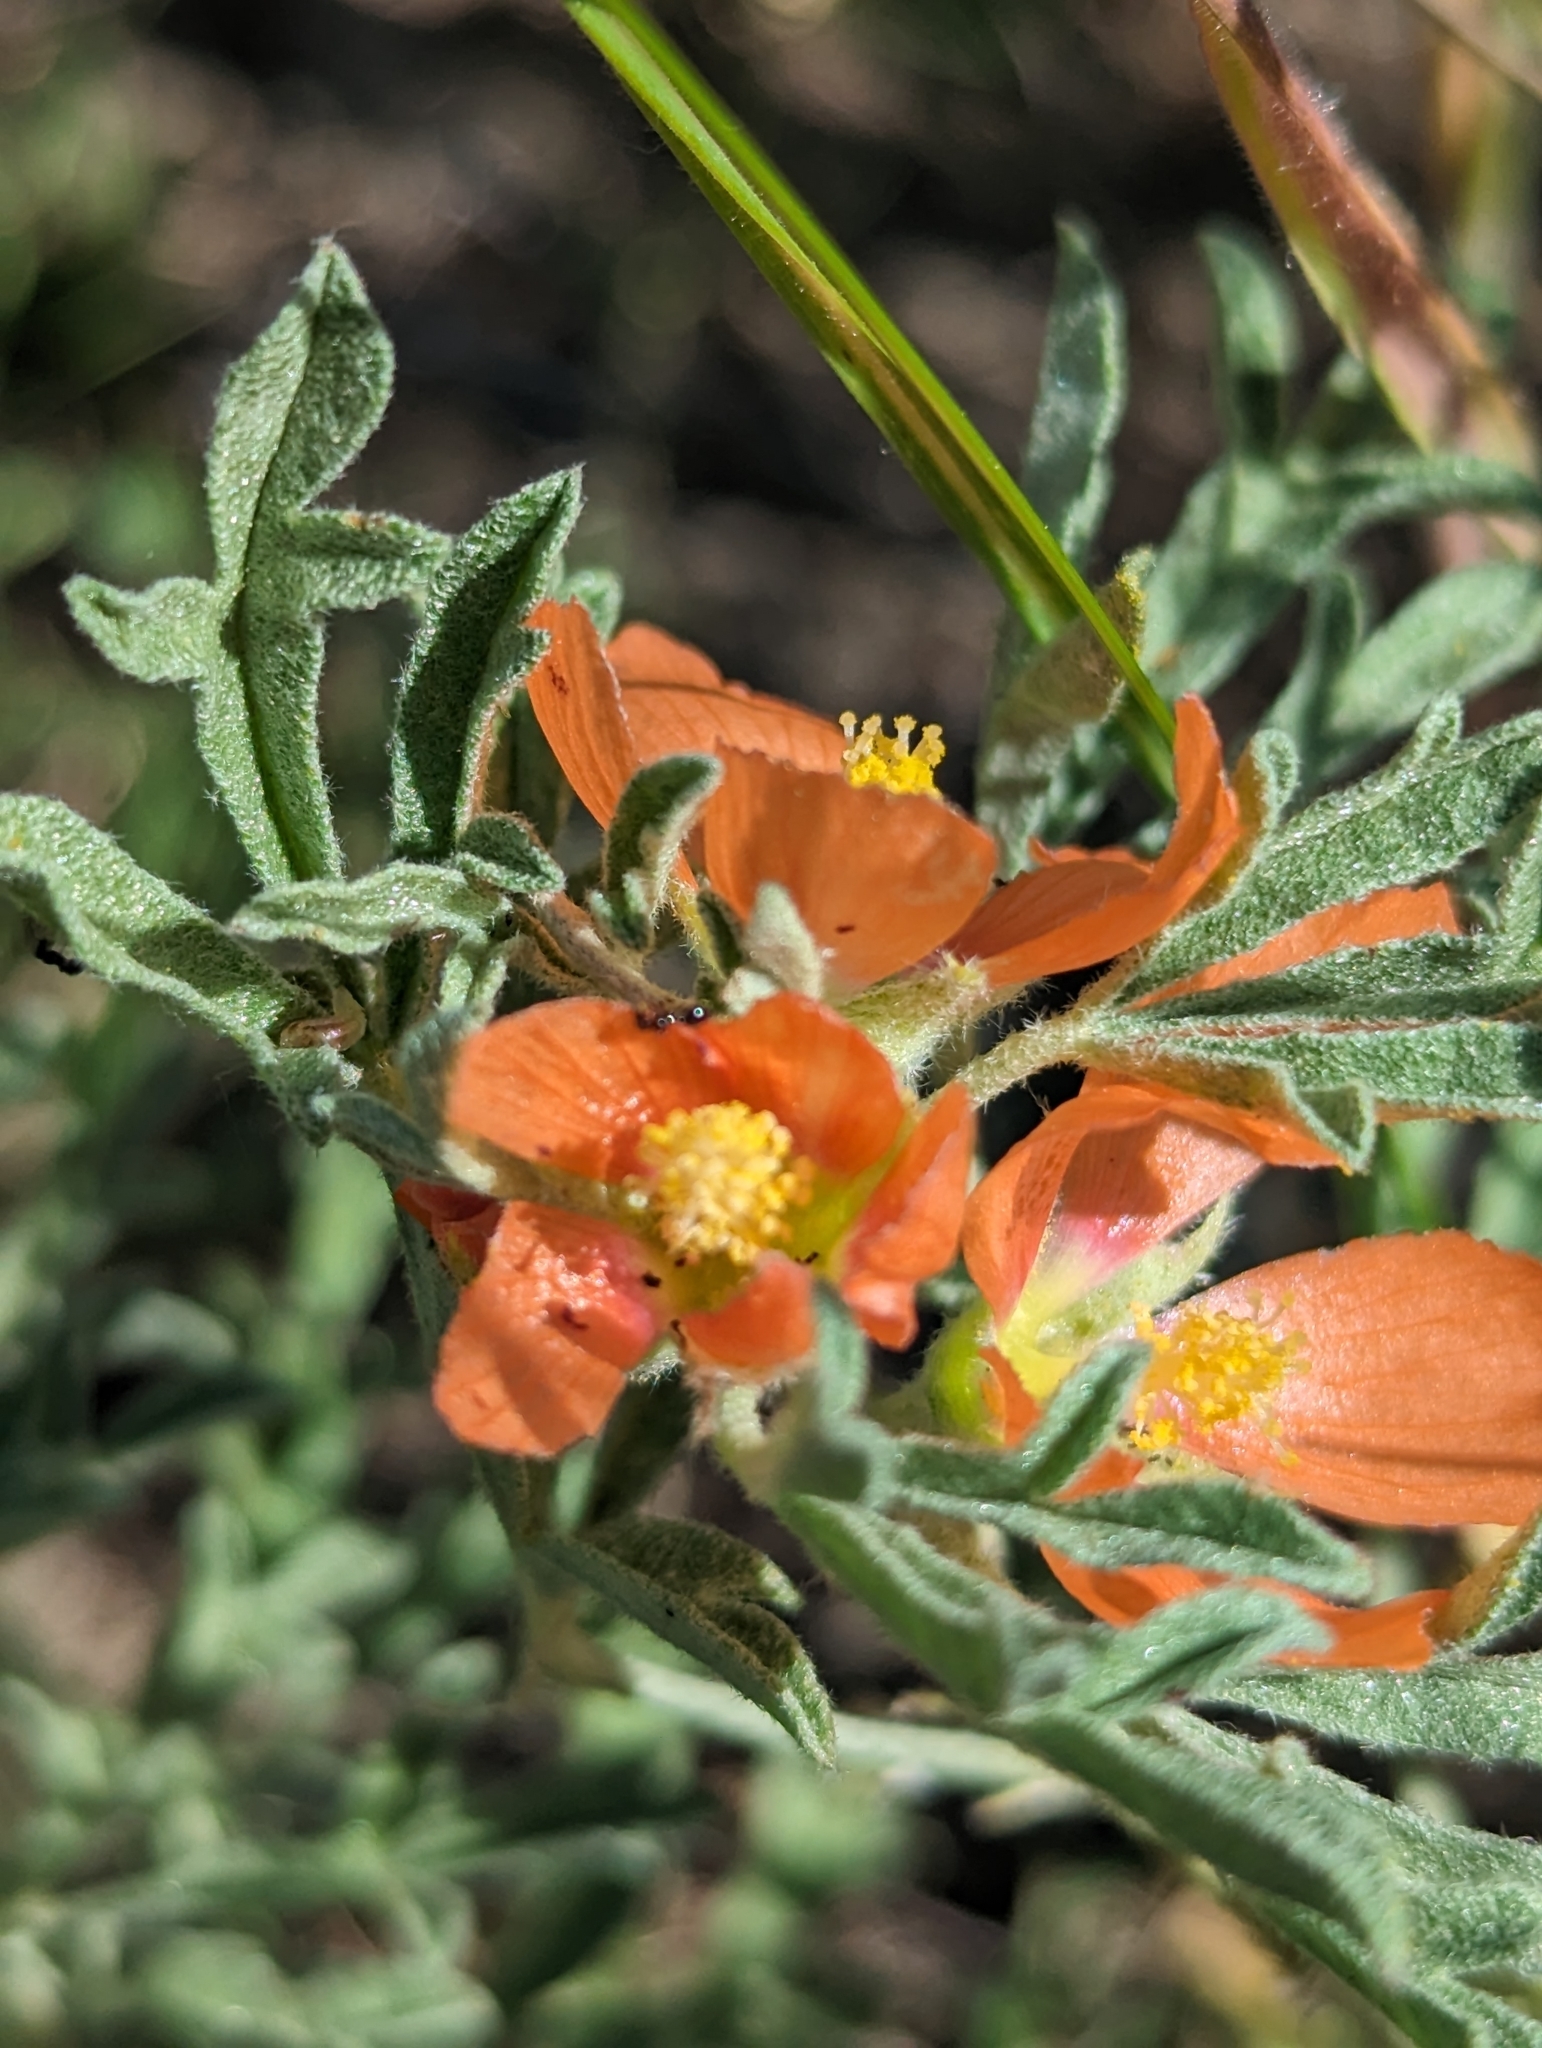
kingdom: Plantae
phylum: Tracheophyta
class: Magnoliopsida
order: Malvales
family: Malvaceae
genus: Sphaeralcea
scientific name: Sphaeralcea coccinea
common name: Moss-rose
